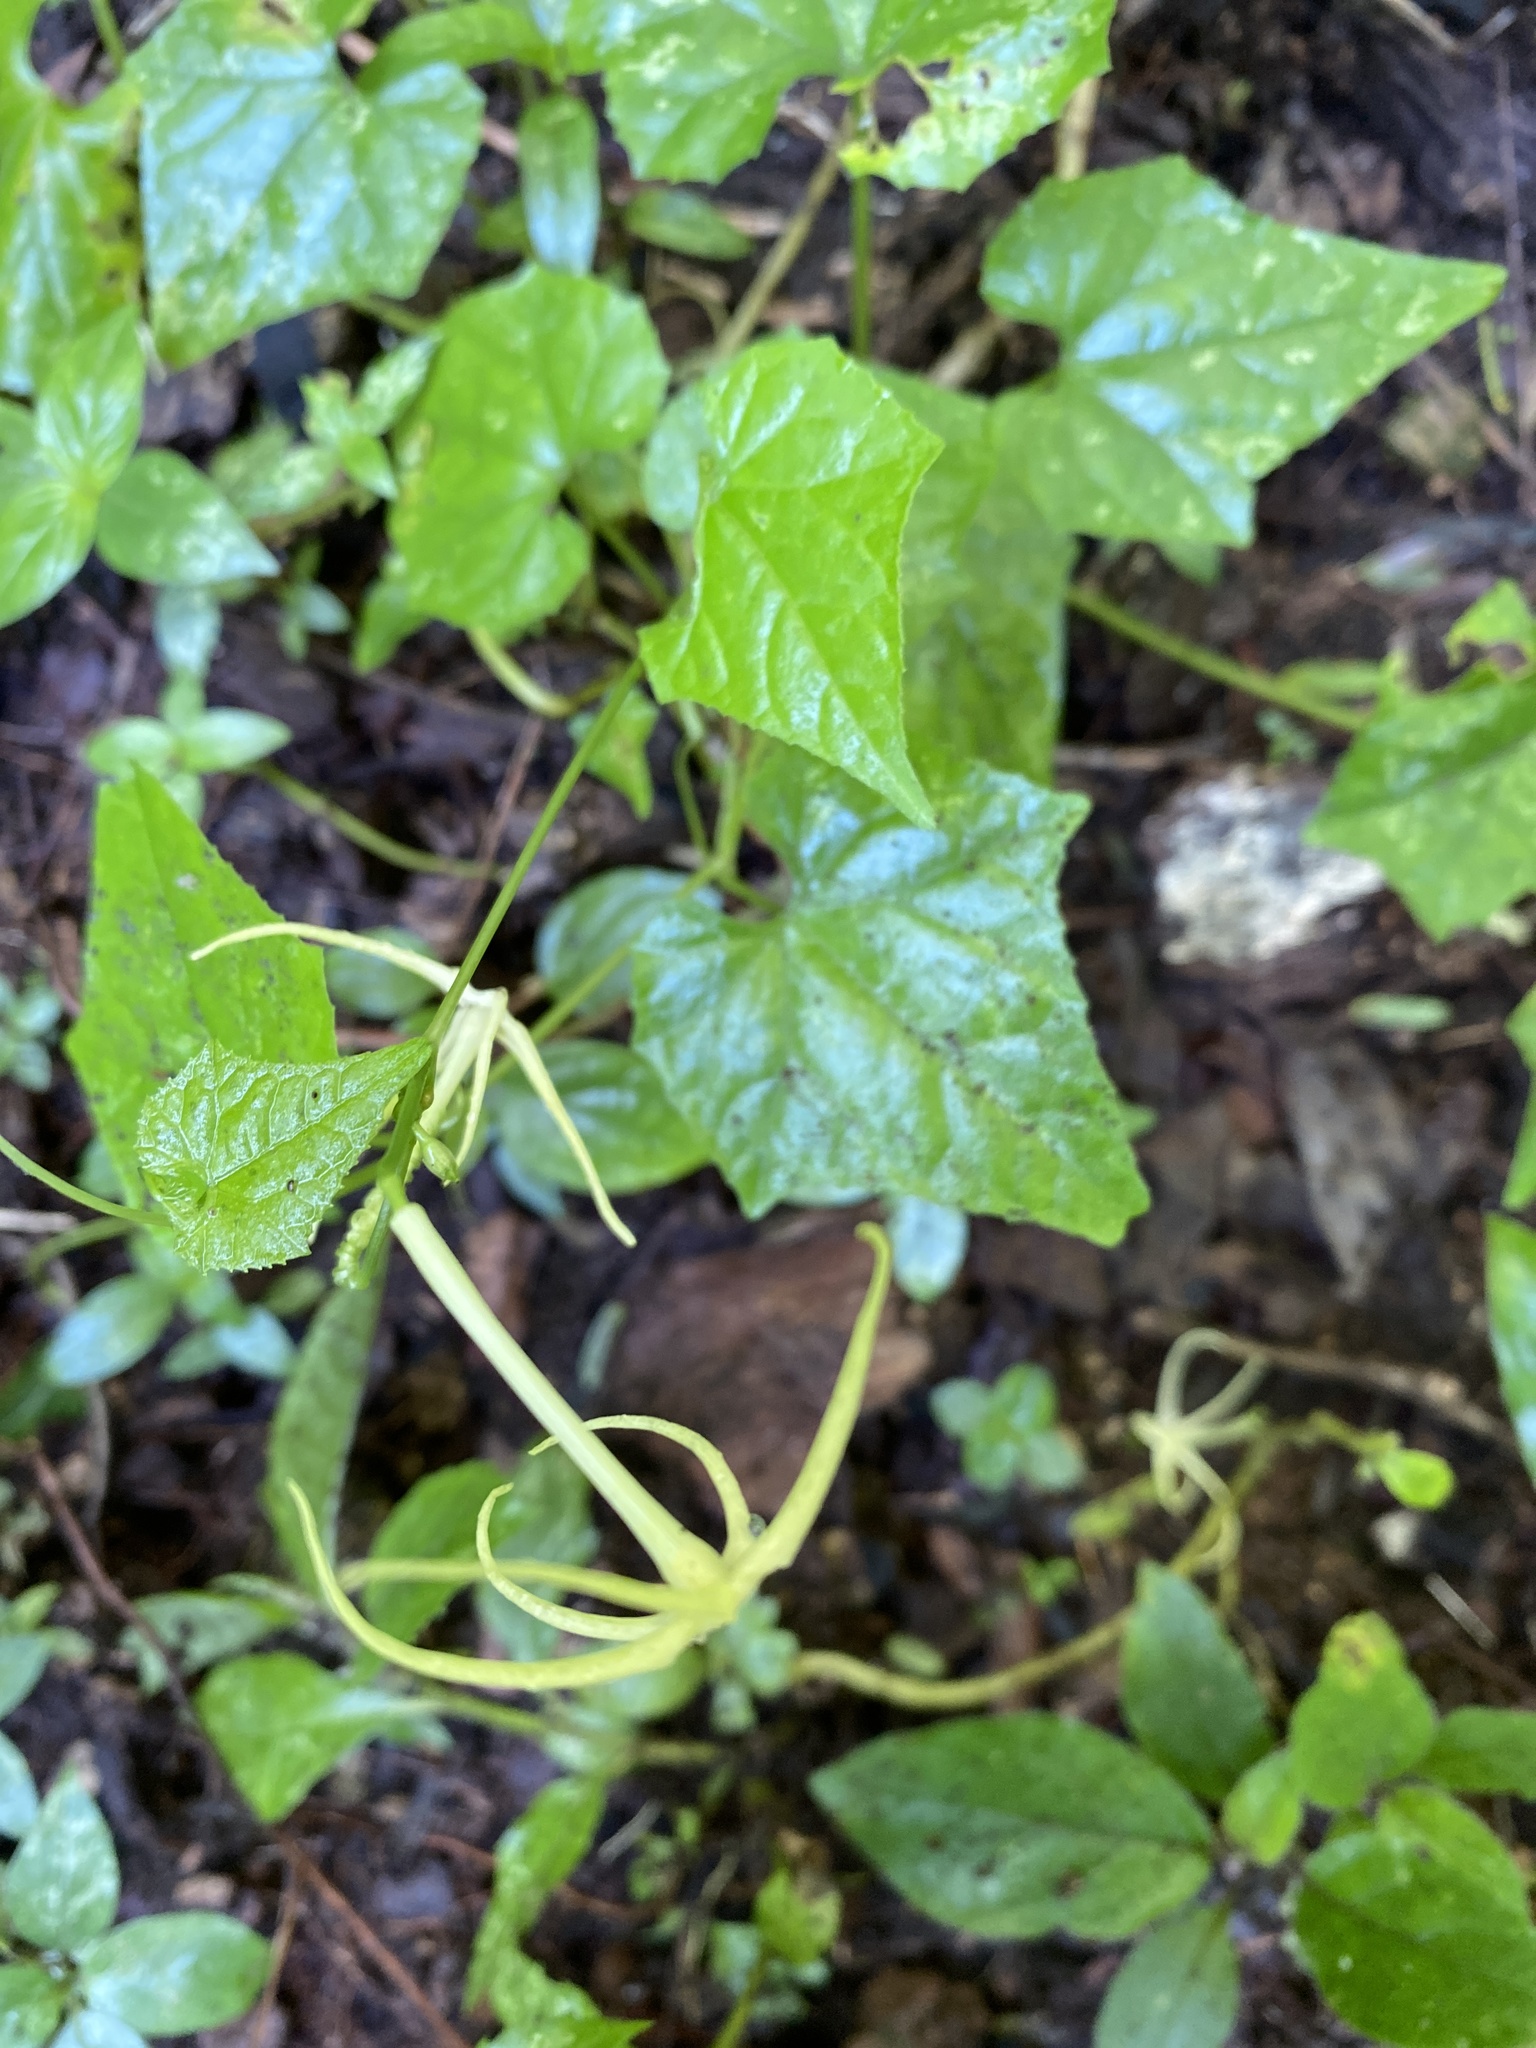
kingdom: Plantae
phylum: Tracheophyta
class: Magnoliopsida
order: Cucurbitales
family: Cucurbitaceae
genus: Cyclanthera
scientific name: Cyclanthera carthagenensis
